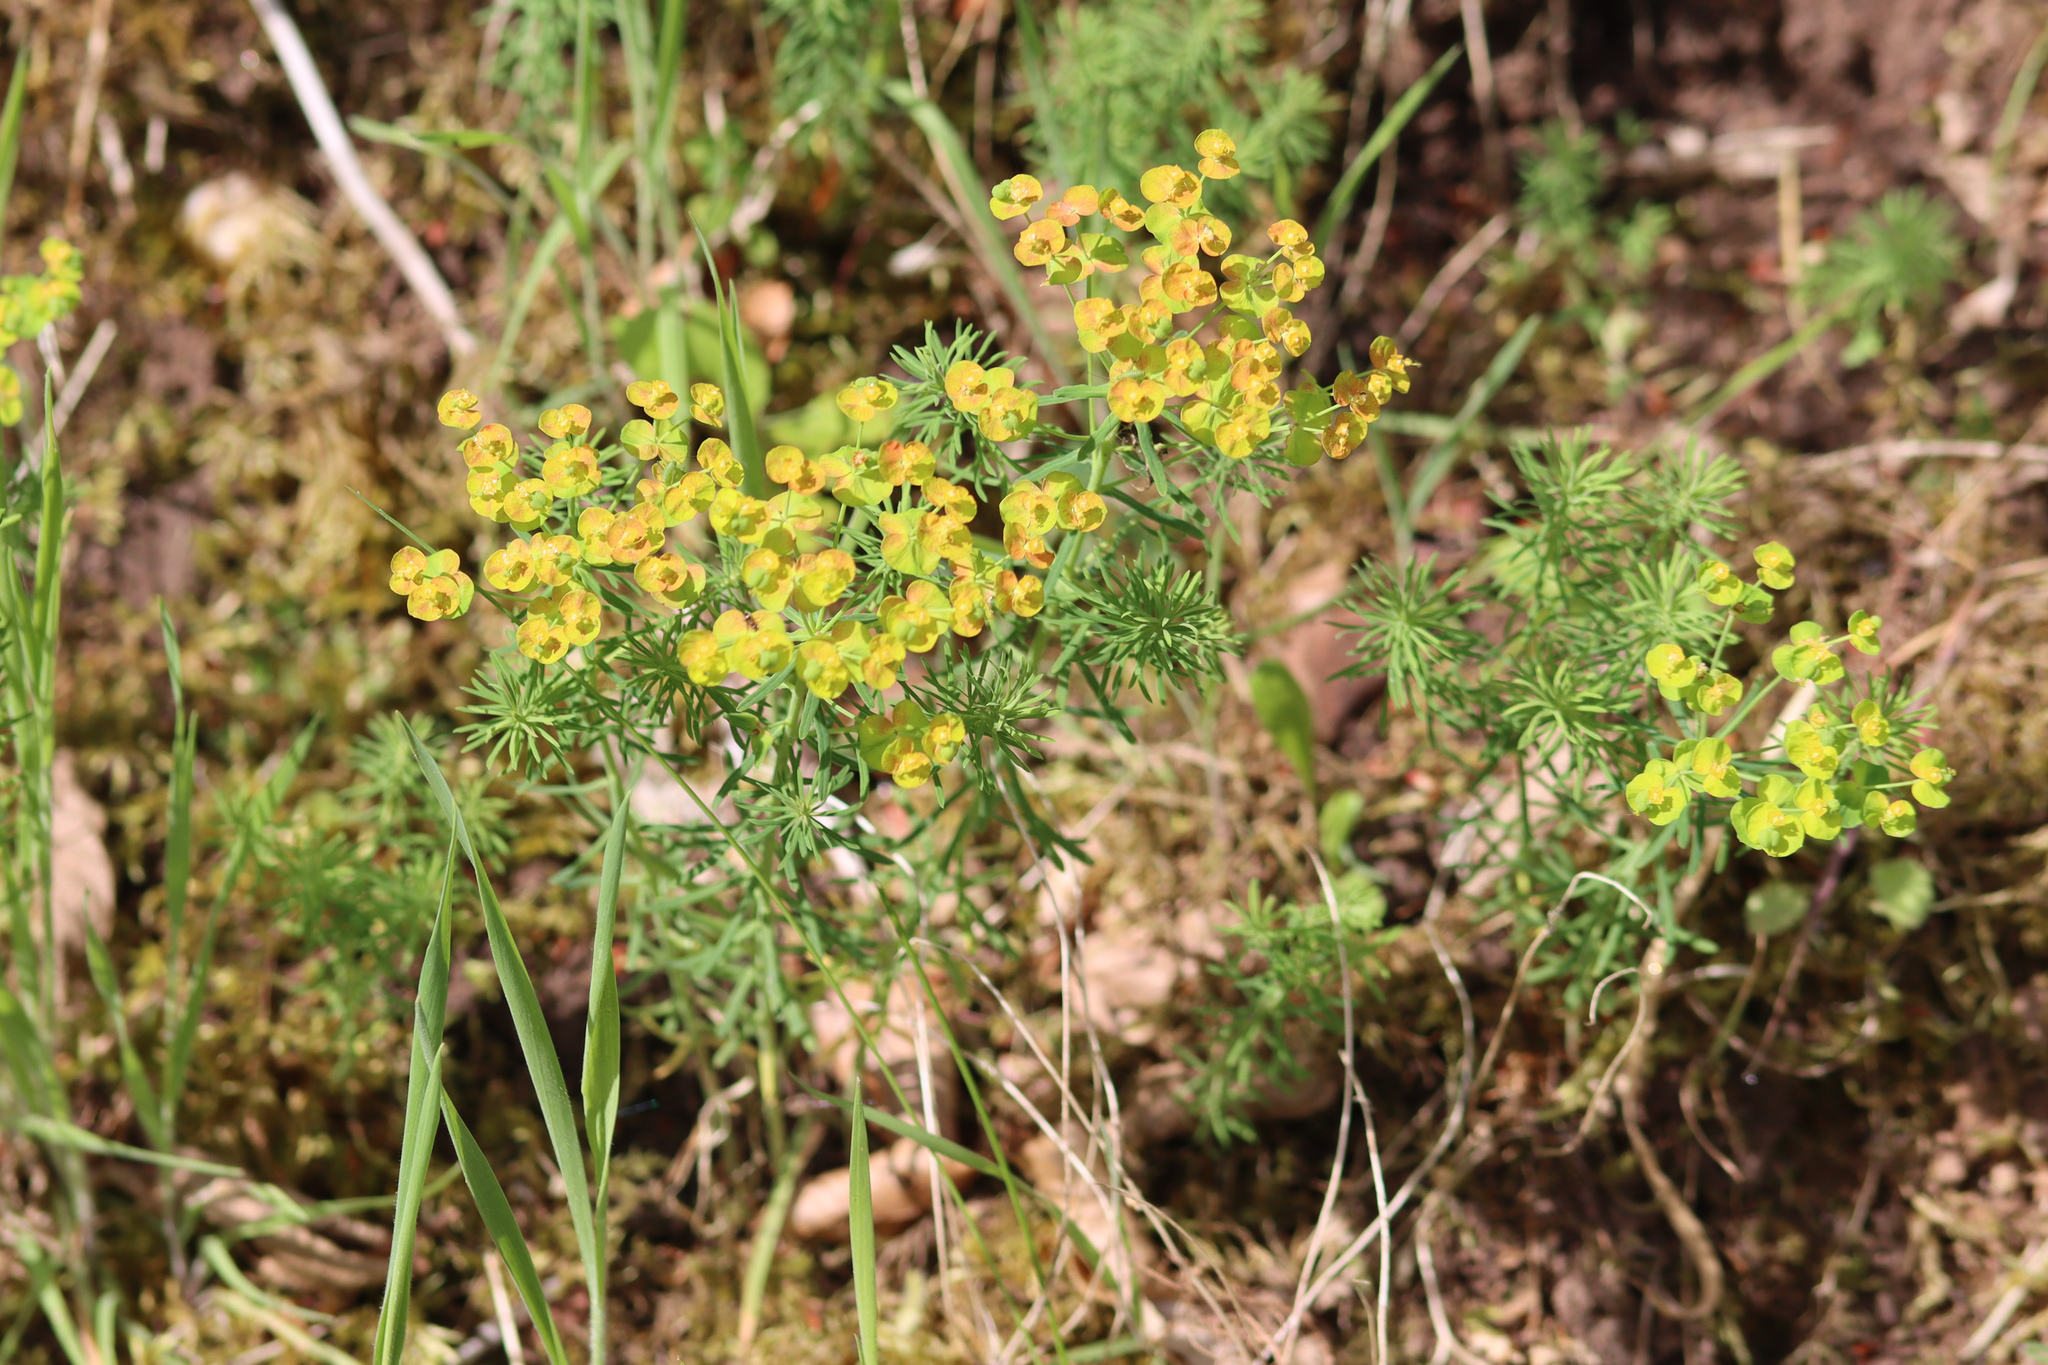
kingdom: Plantae
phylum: Tracheophyta
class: Magnoliopsida
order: Malpighiales
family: Euphorbiaceae
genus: Euphorbia
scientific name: Euphorbia cyparissias
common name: Cypress spurge
